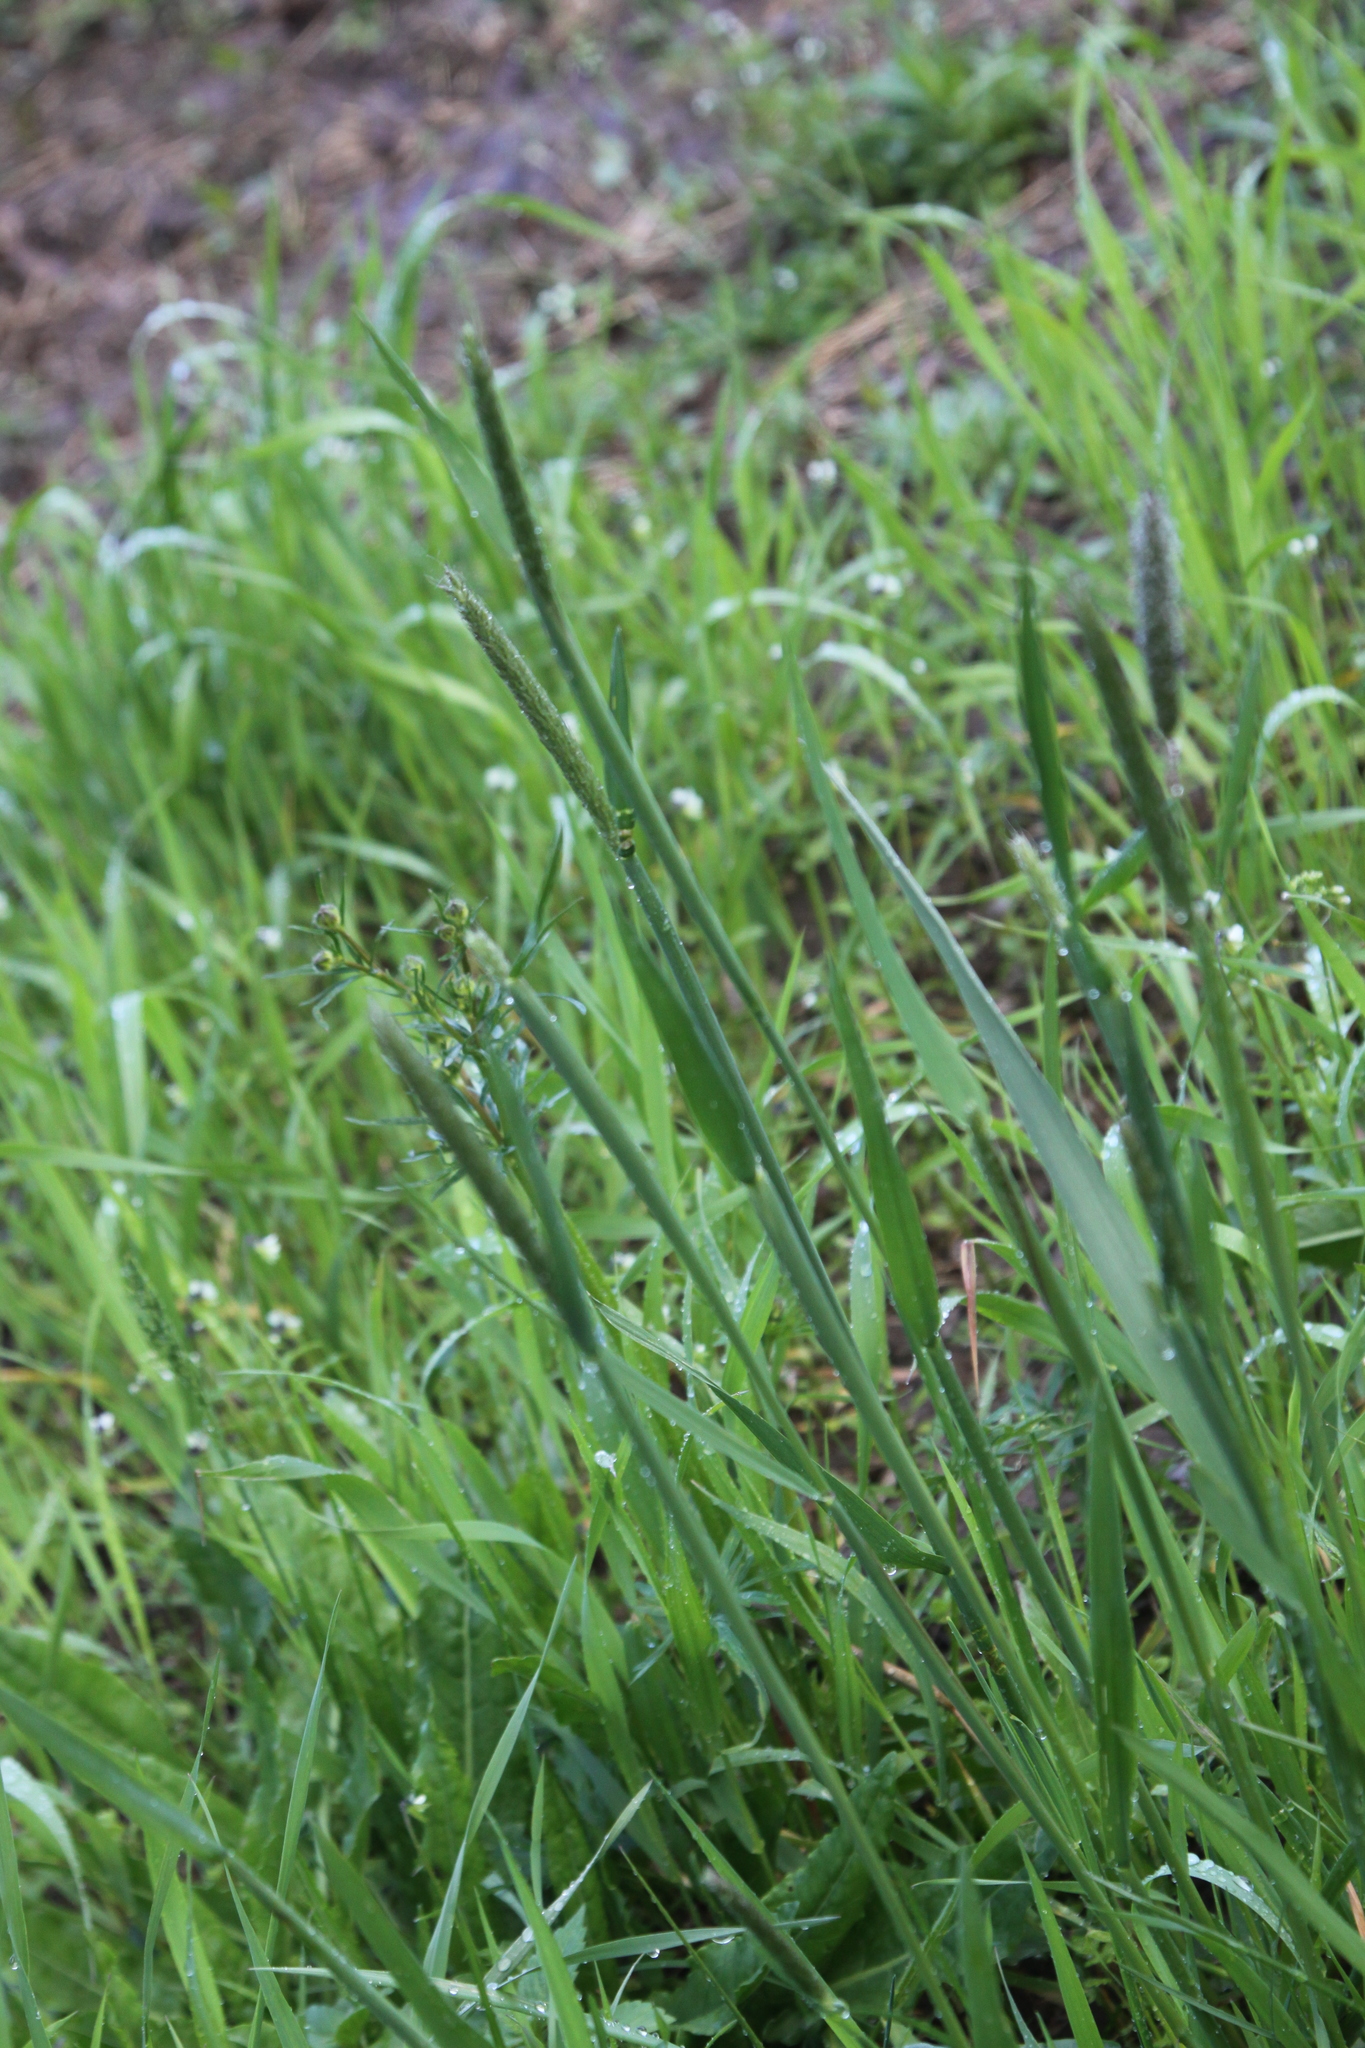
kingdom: Plantae
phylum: Tracheophyta
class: Liliopsida
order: Poales
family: Poaceae
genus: Alopecurus
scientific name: Alopecurus pratensis
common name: Meadow foxtail
